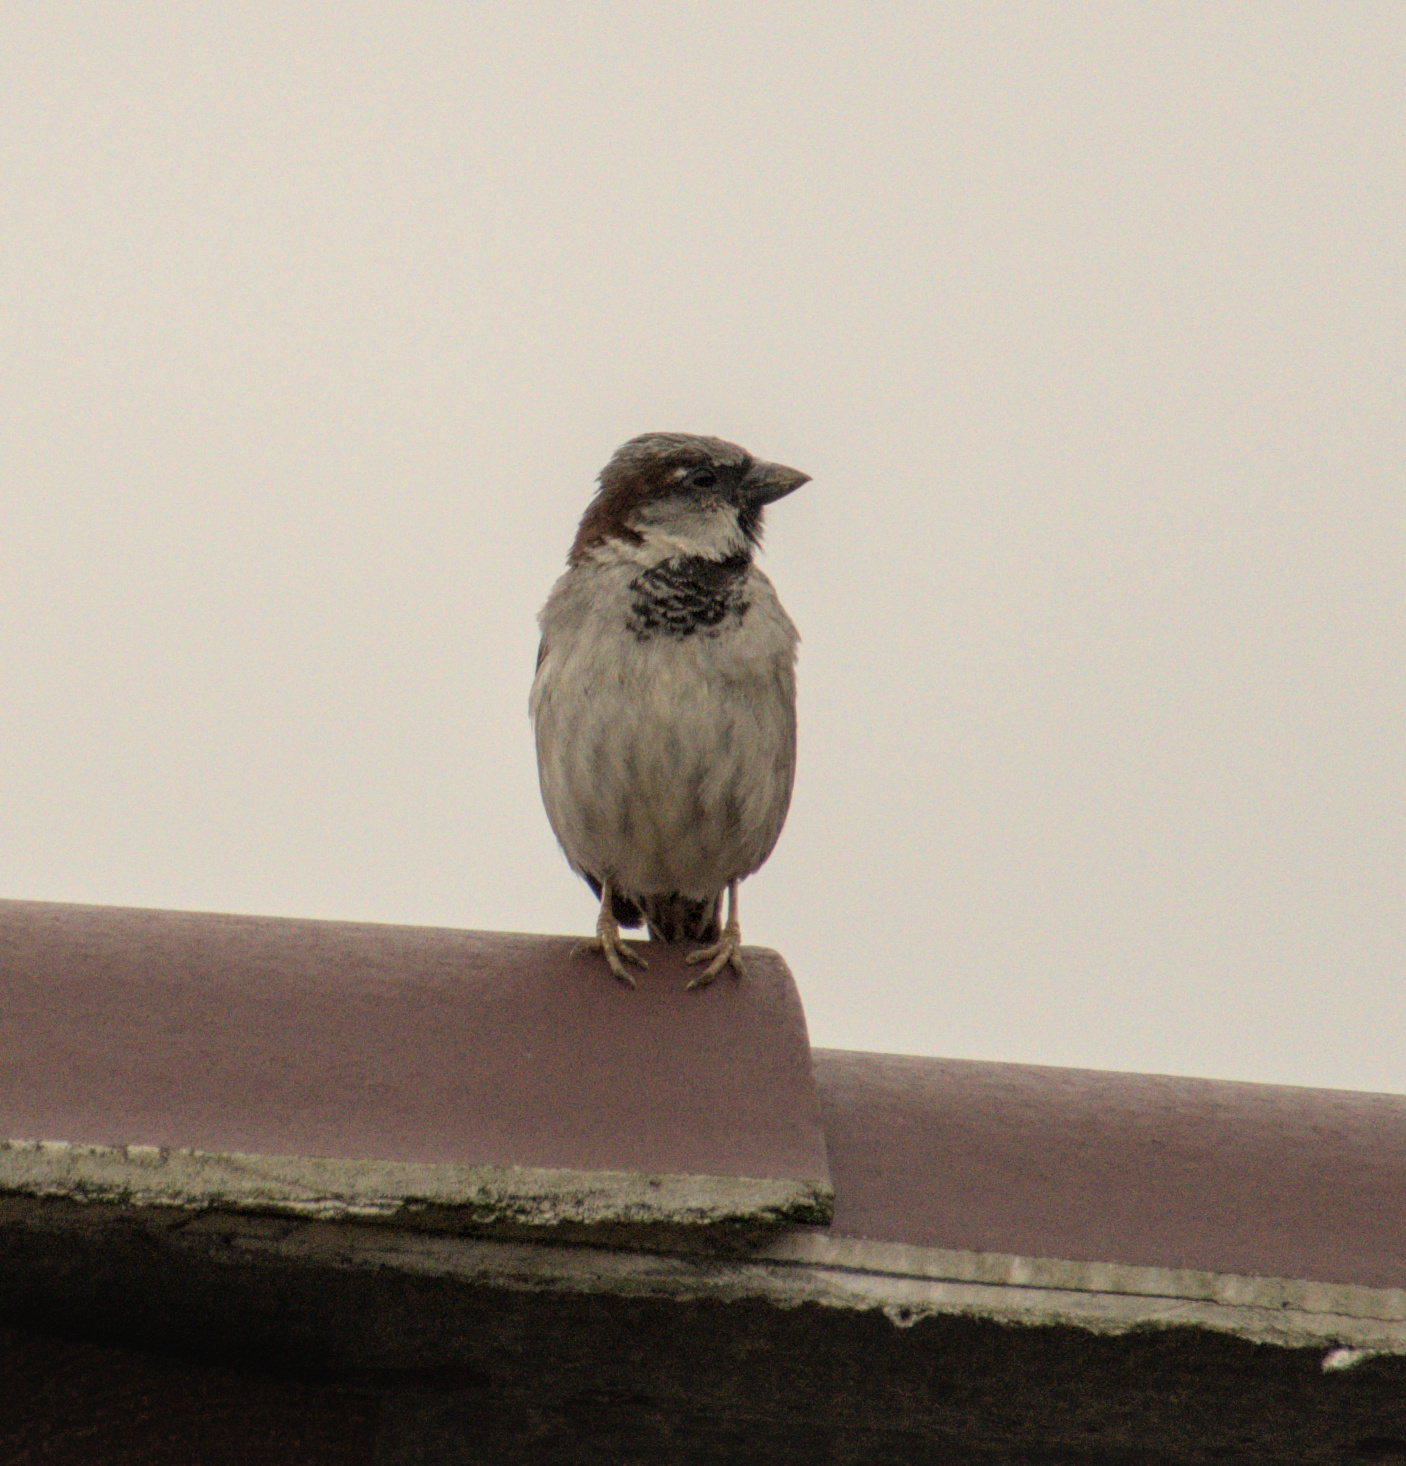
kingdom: Animalia
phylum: Chordata
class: Aves
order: Passeriformes
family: Passeridae
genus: Passer
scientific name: Passer domesticus
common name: House sparrow
